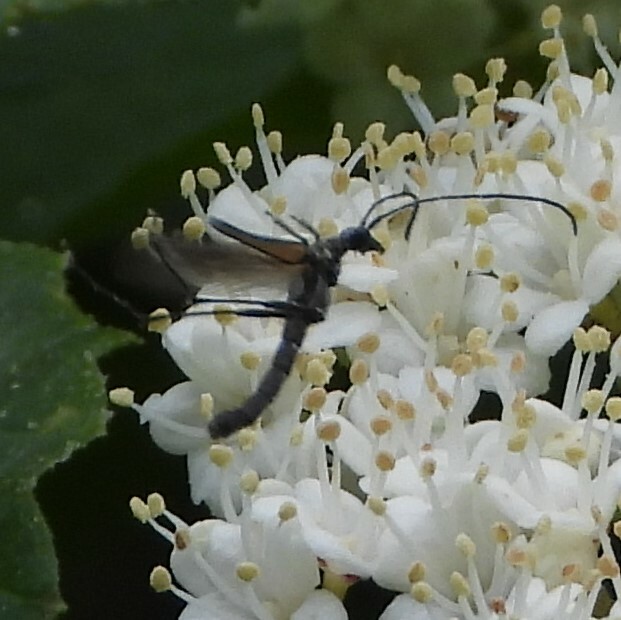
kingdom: Animalia
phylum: Arthropoda
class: Insecta
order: Coleoptera
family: Cerambycidae
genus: Strangalia
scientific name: Strangalia acuminata
